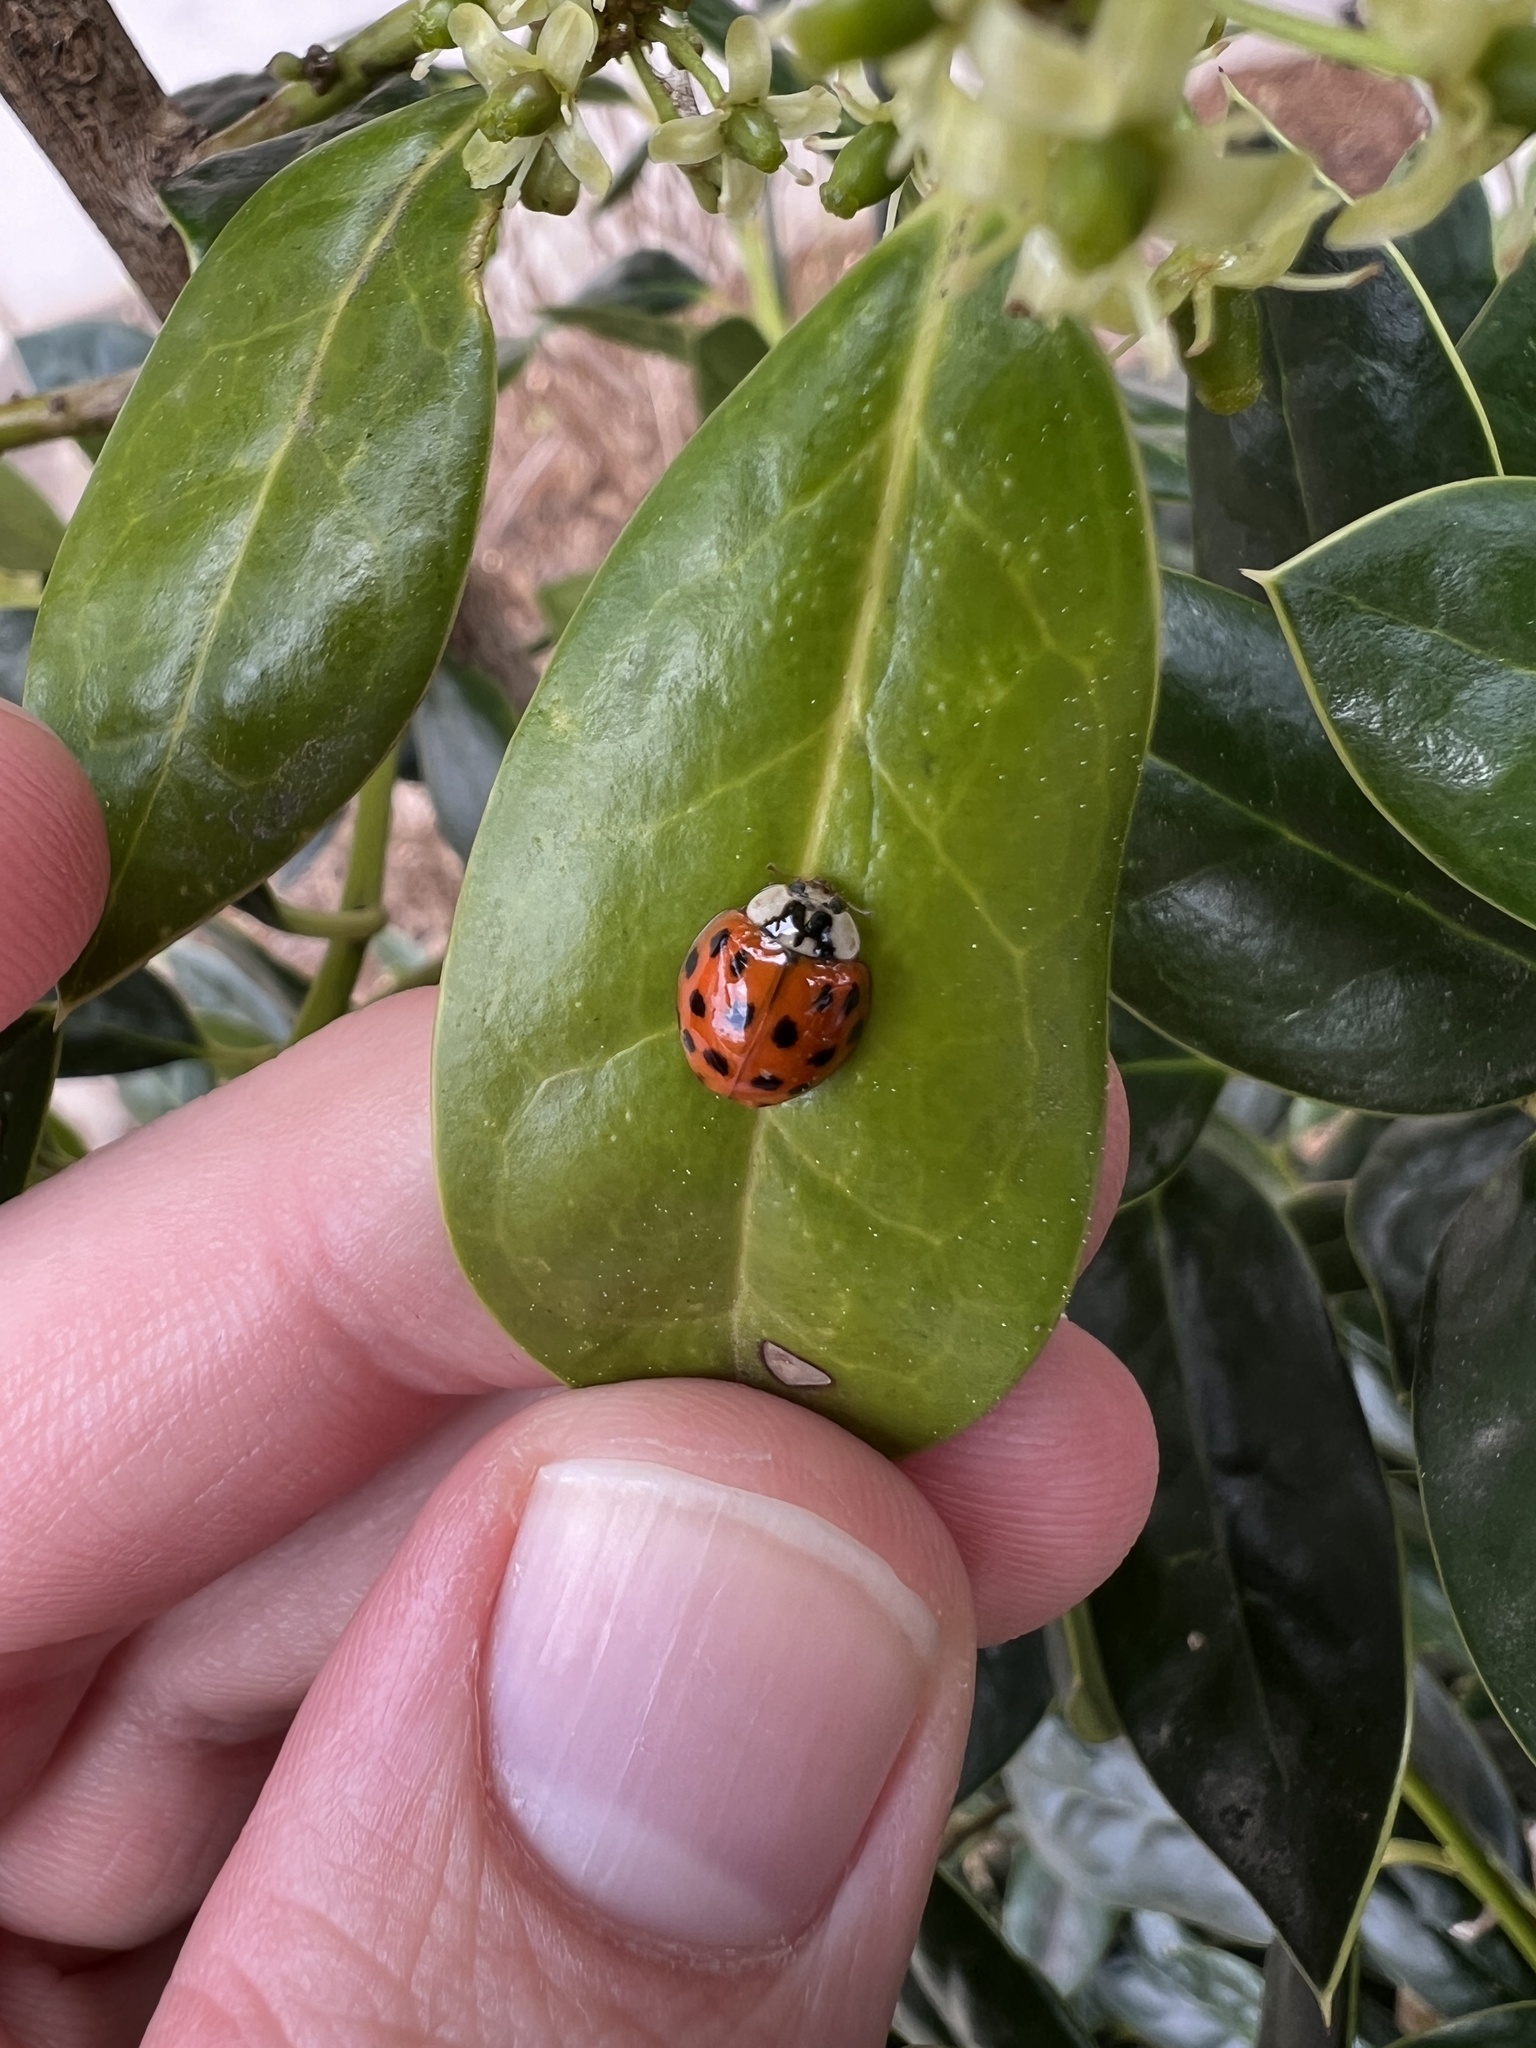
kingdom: Animalia
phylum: Arthropoda
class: Insecta
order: Coleoptera
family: Coccinellidae
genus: Harmonia
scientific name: Harmonia axyridis
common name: Harlequin ladybird
